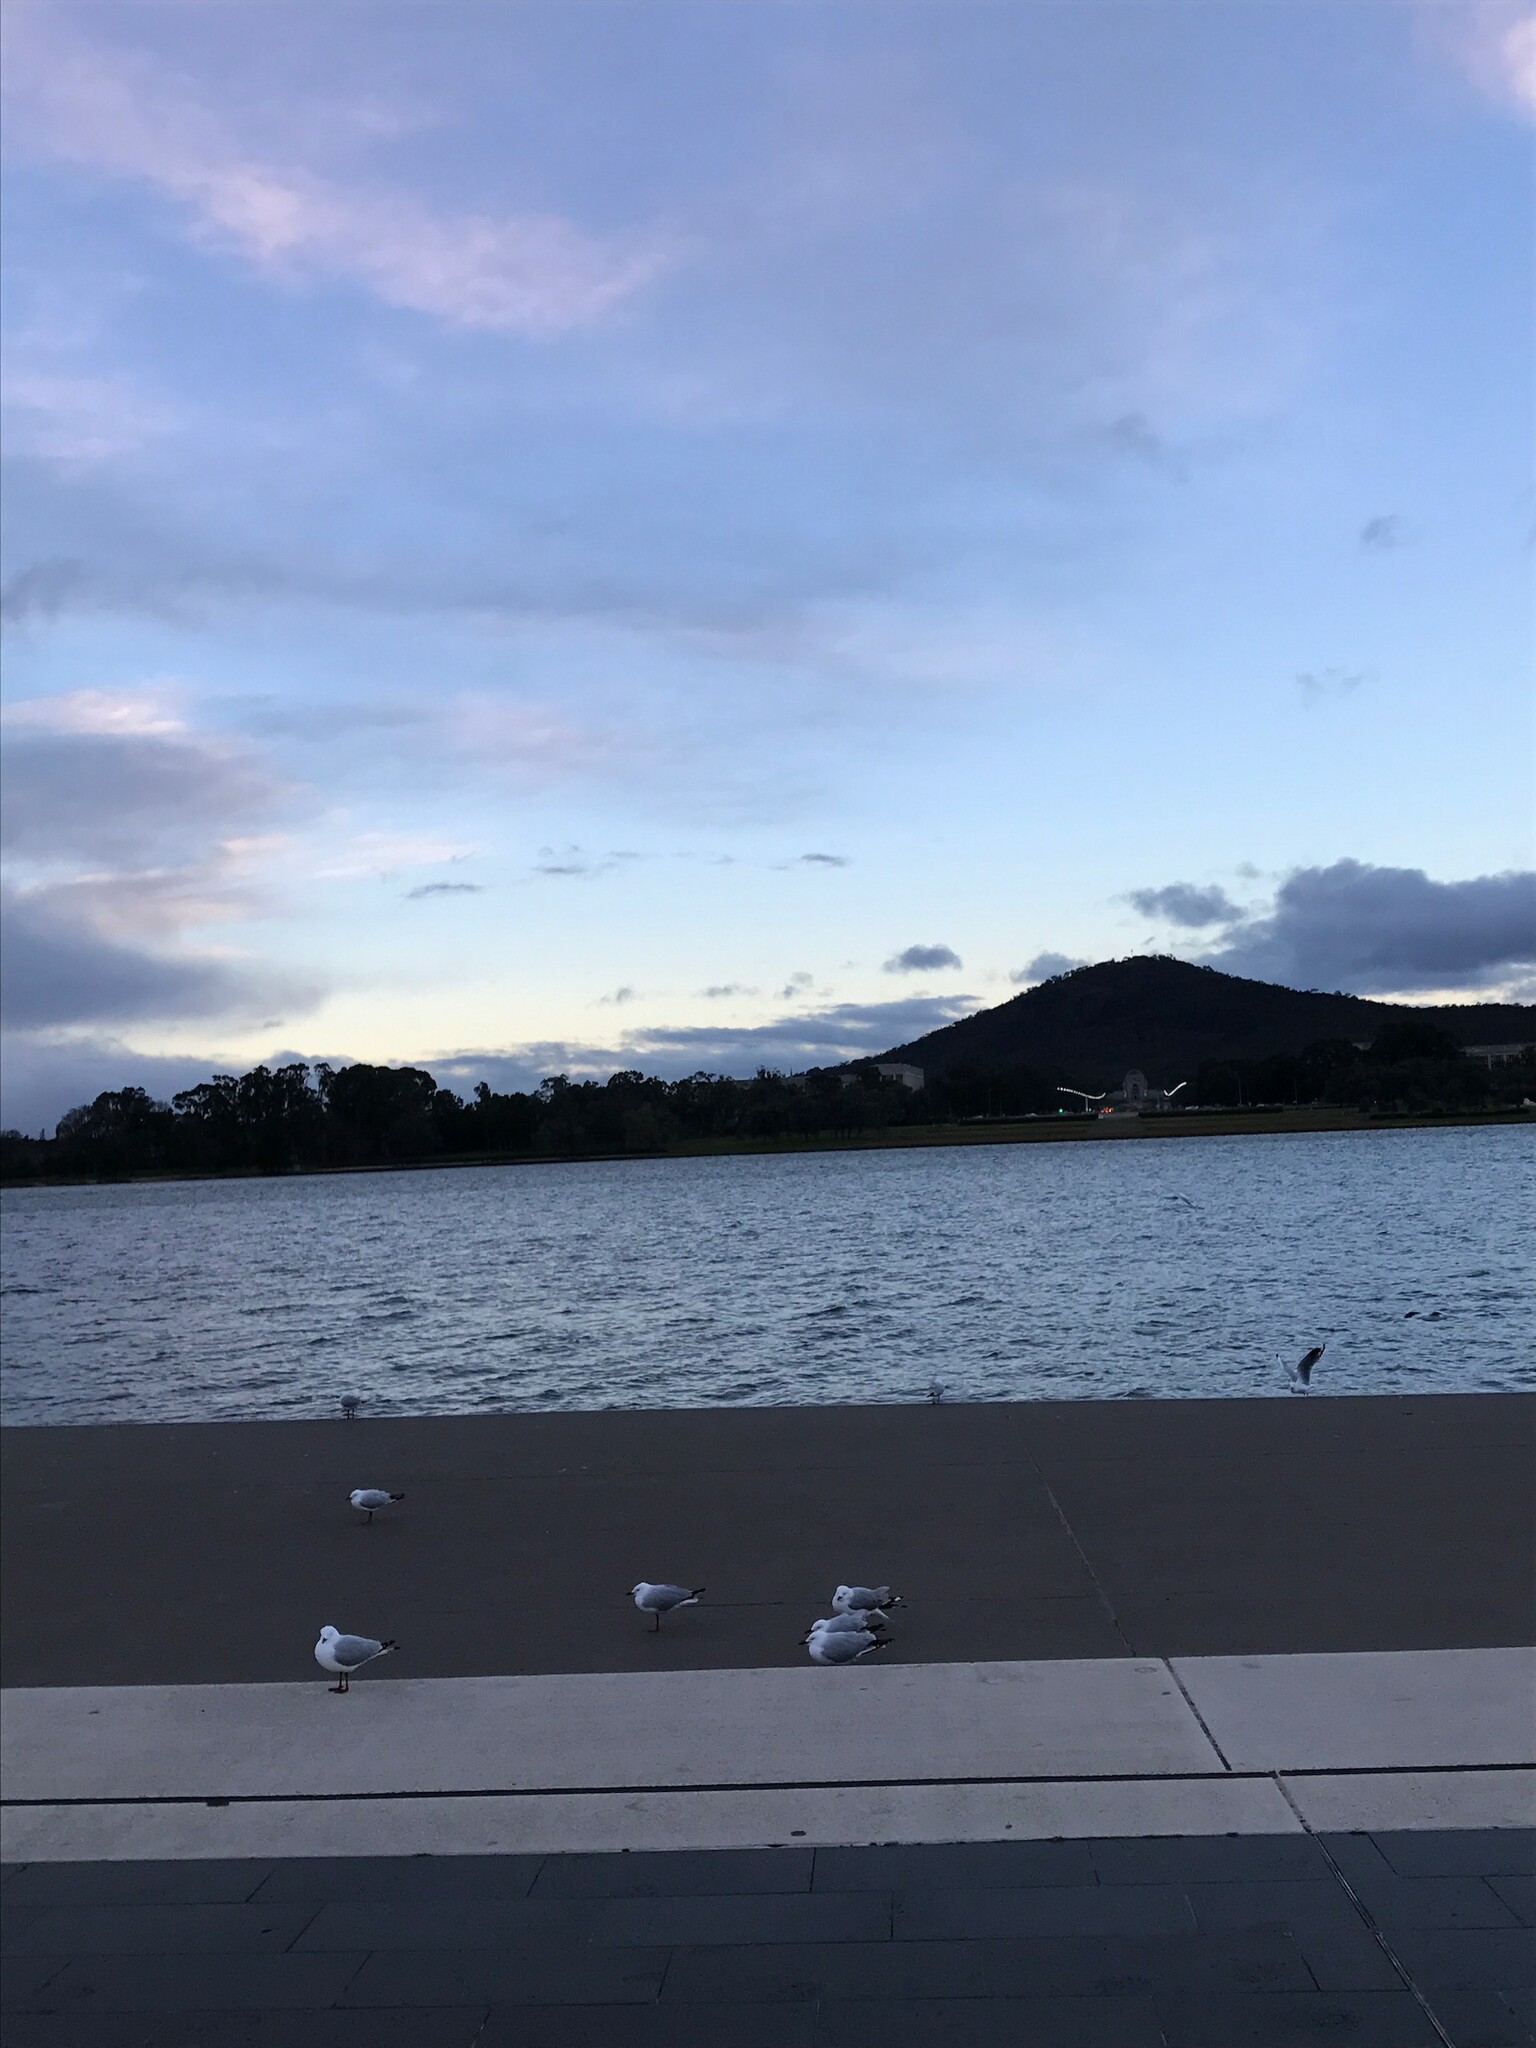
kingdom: Animalia
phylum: Chordata
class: Aves
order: Charadriiformes
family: Laridae
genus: Chroicocephalus
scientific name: Chroicocephalus novaehollandiae
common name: Silver gull
